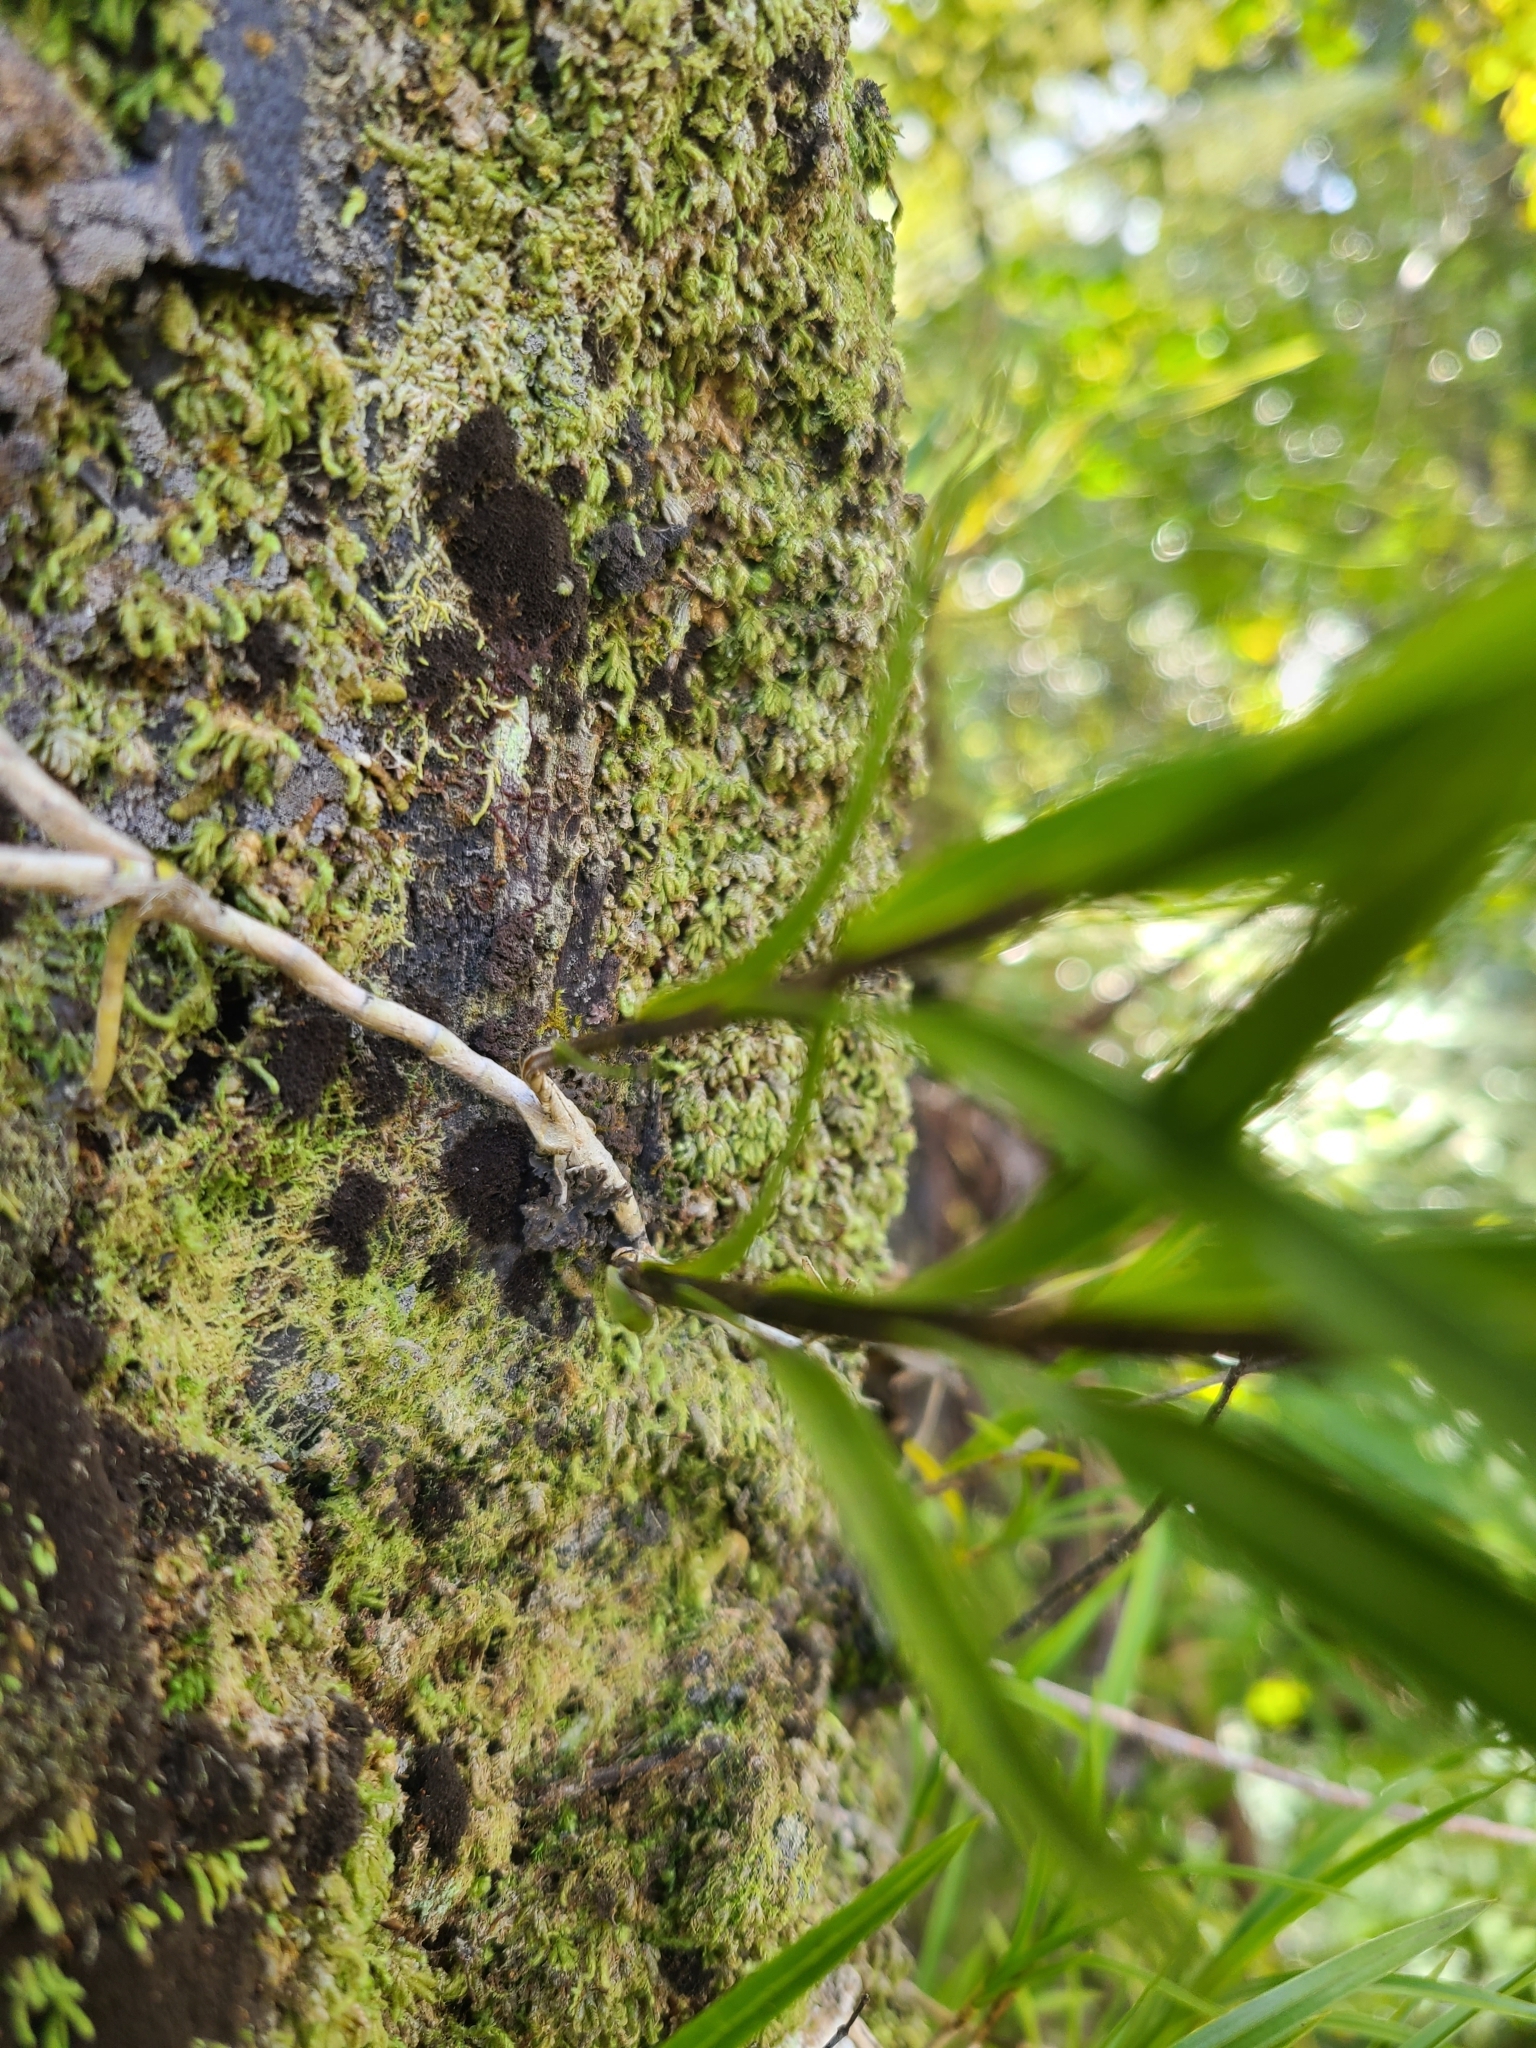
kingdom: Plantae
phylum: Tracheophyta
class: Liliopsida
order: Asparagales
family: Orchidaceae
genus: Earina
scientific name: Earina mucronata
